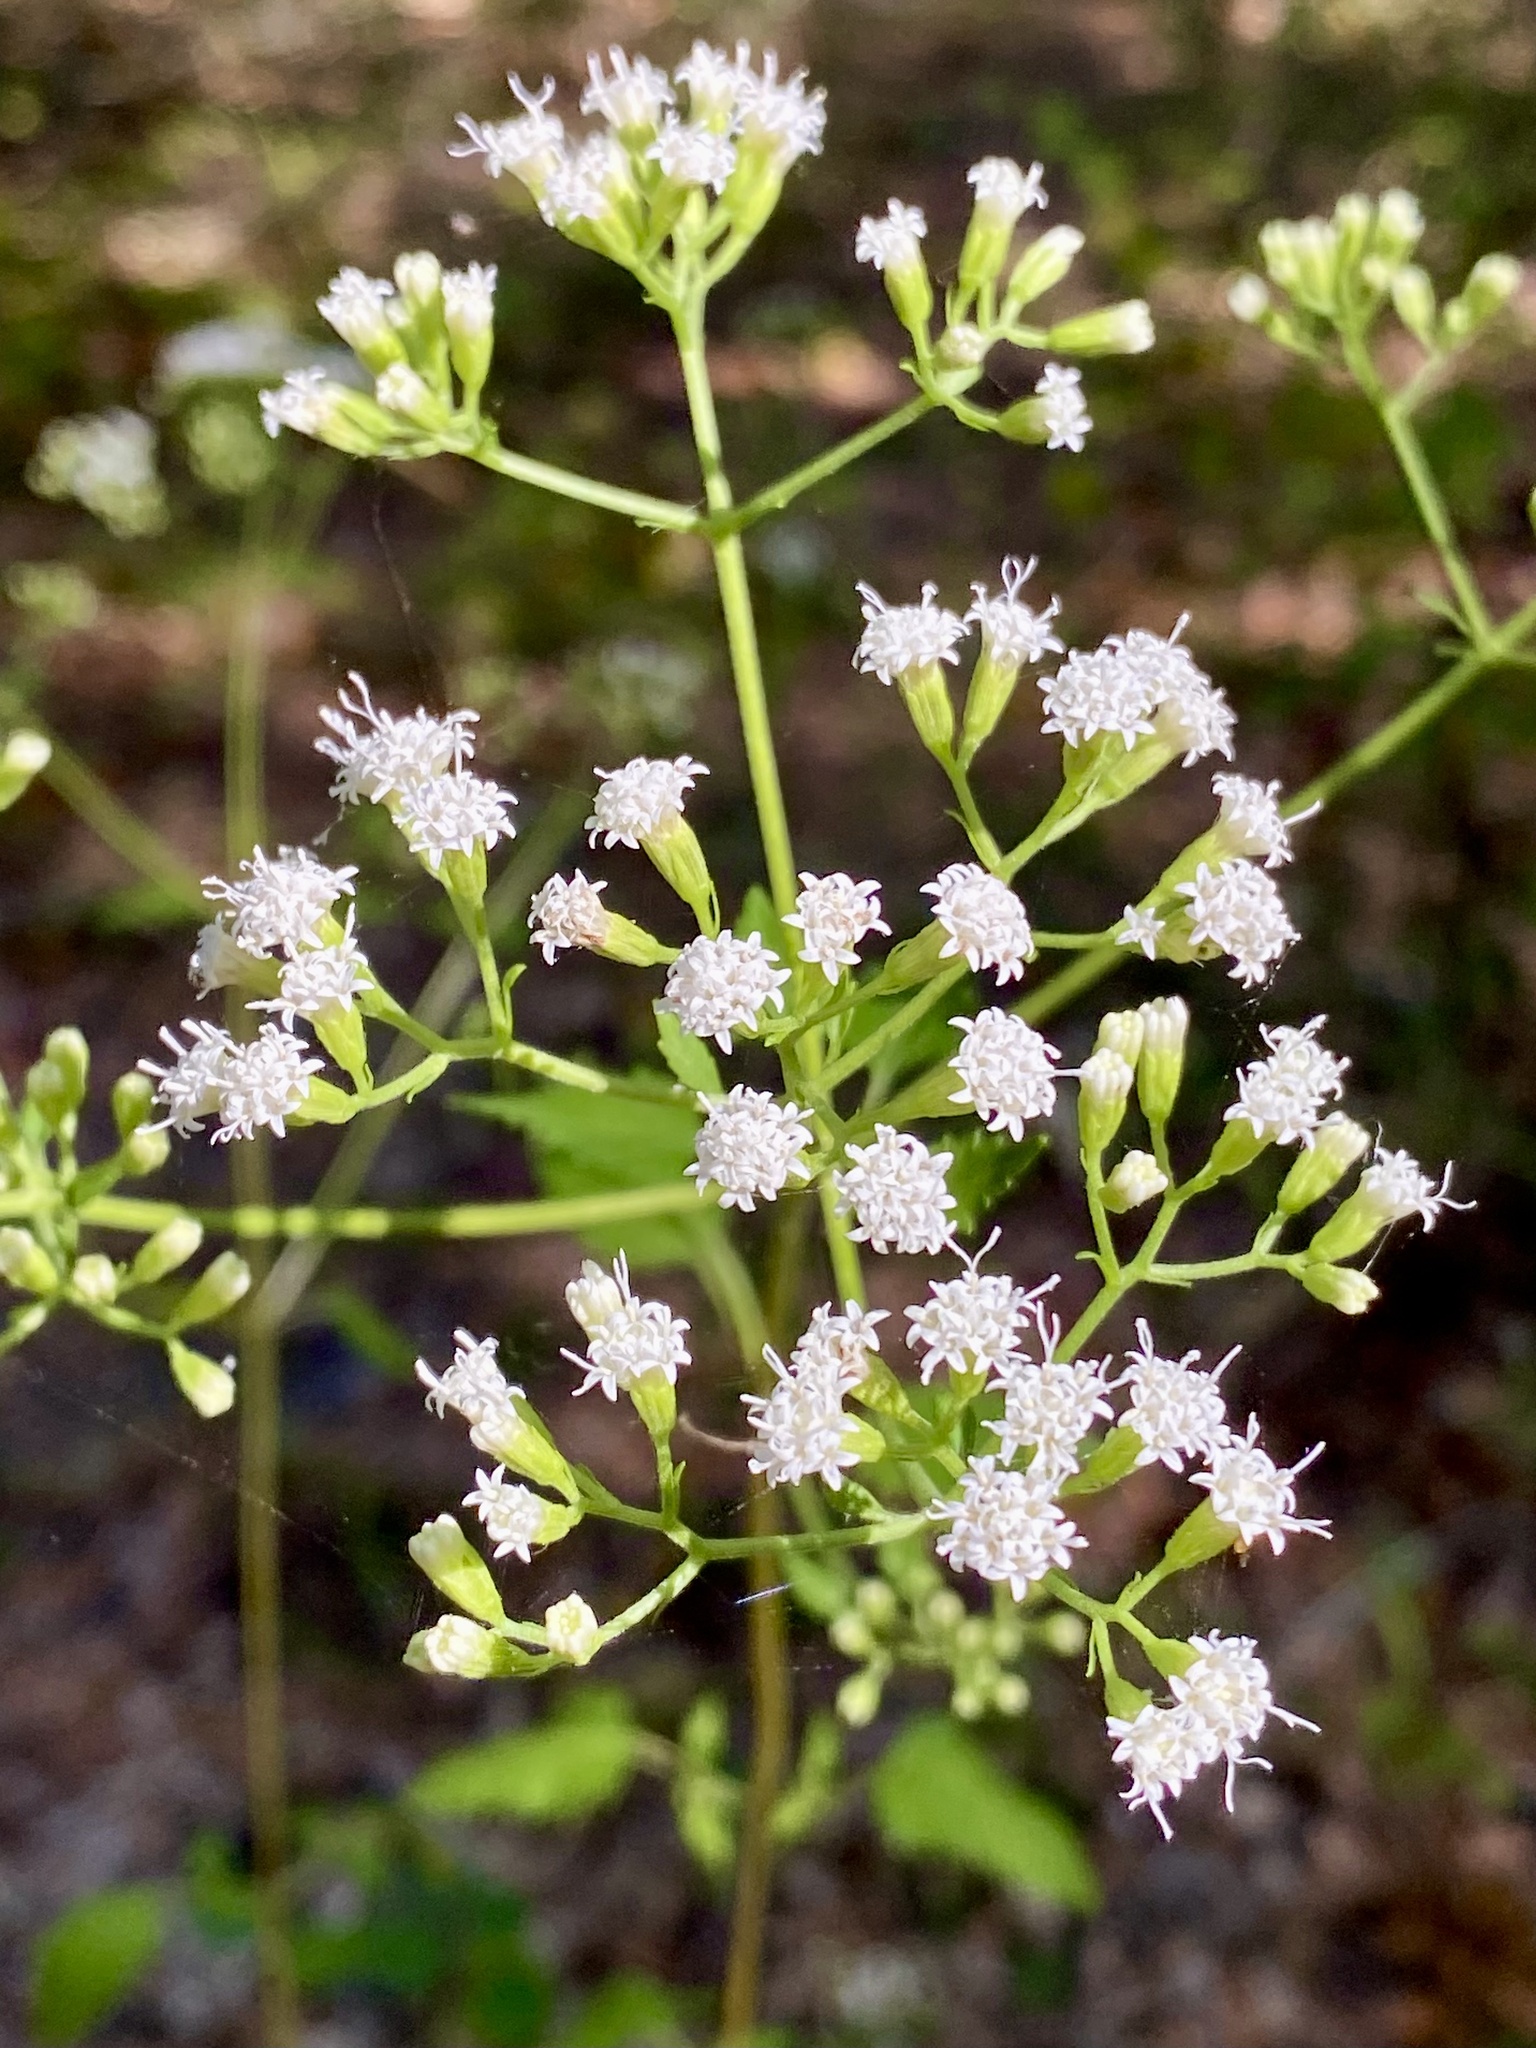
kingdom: Plantae
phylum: Tracheophyta
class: Magnoliopsida
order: Asterales
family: Asteraceae
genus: Ageratina
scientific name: Ageratina jucunda
